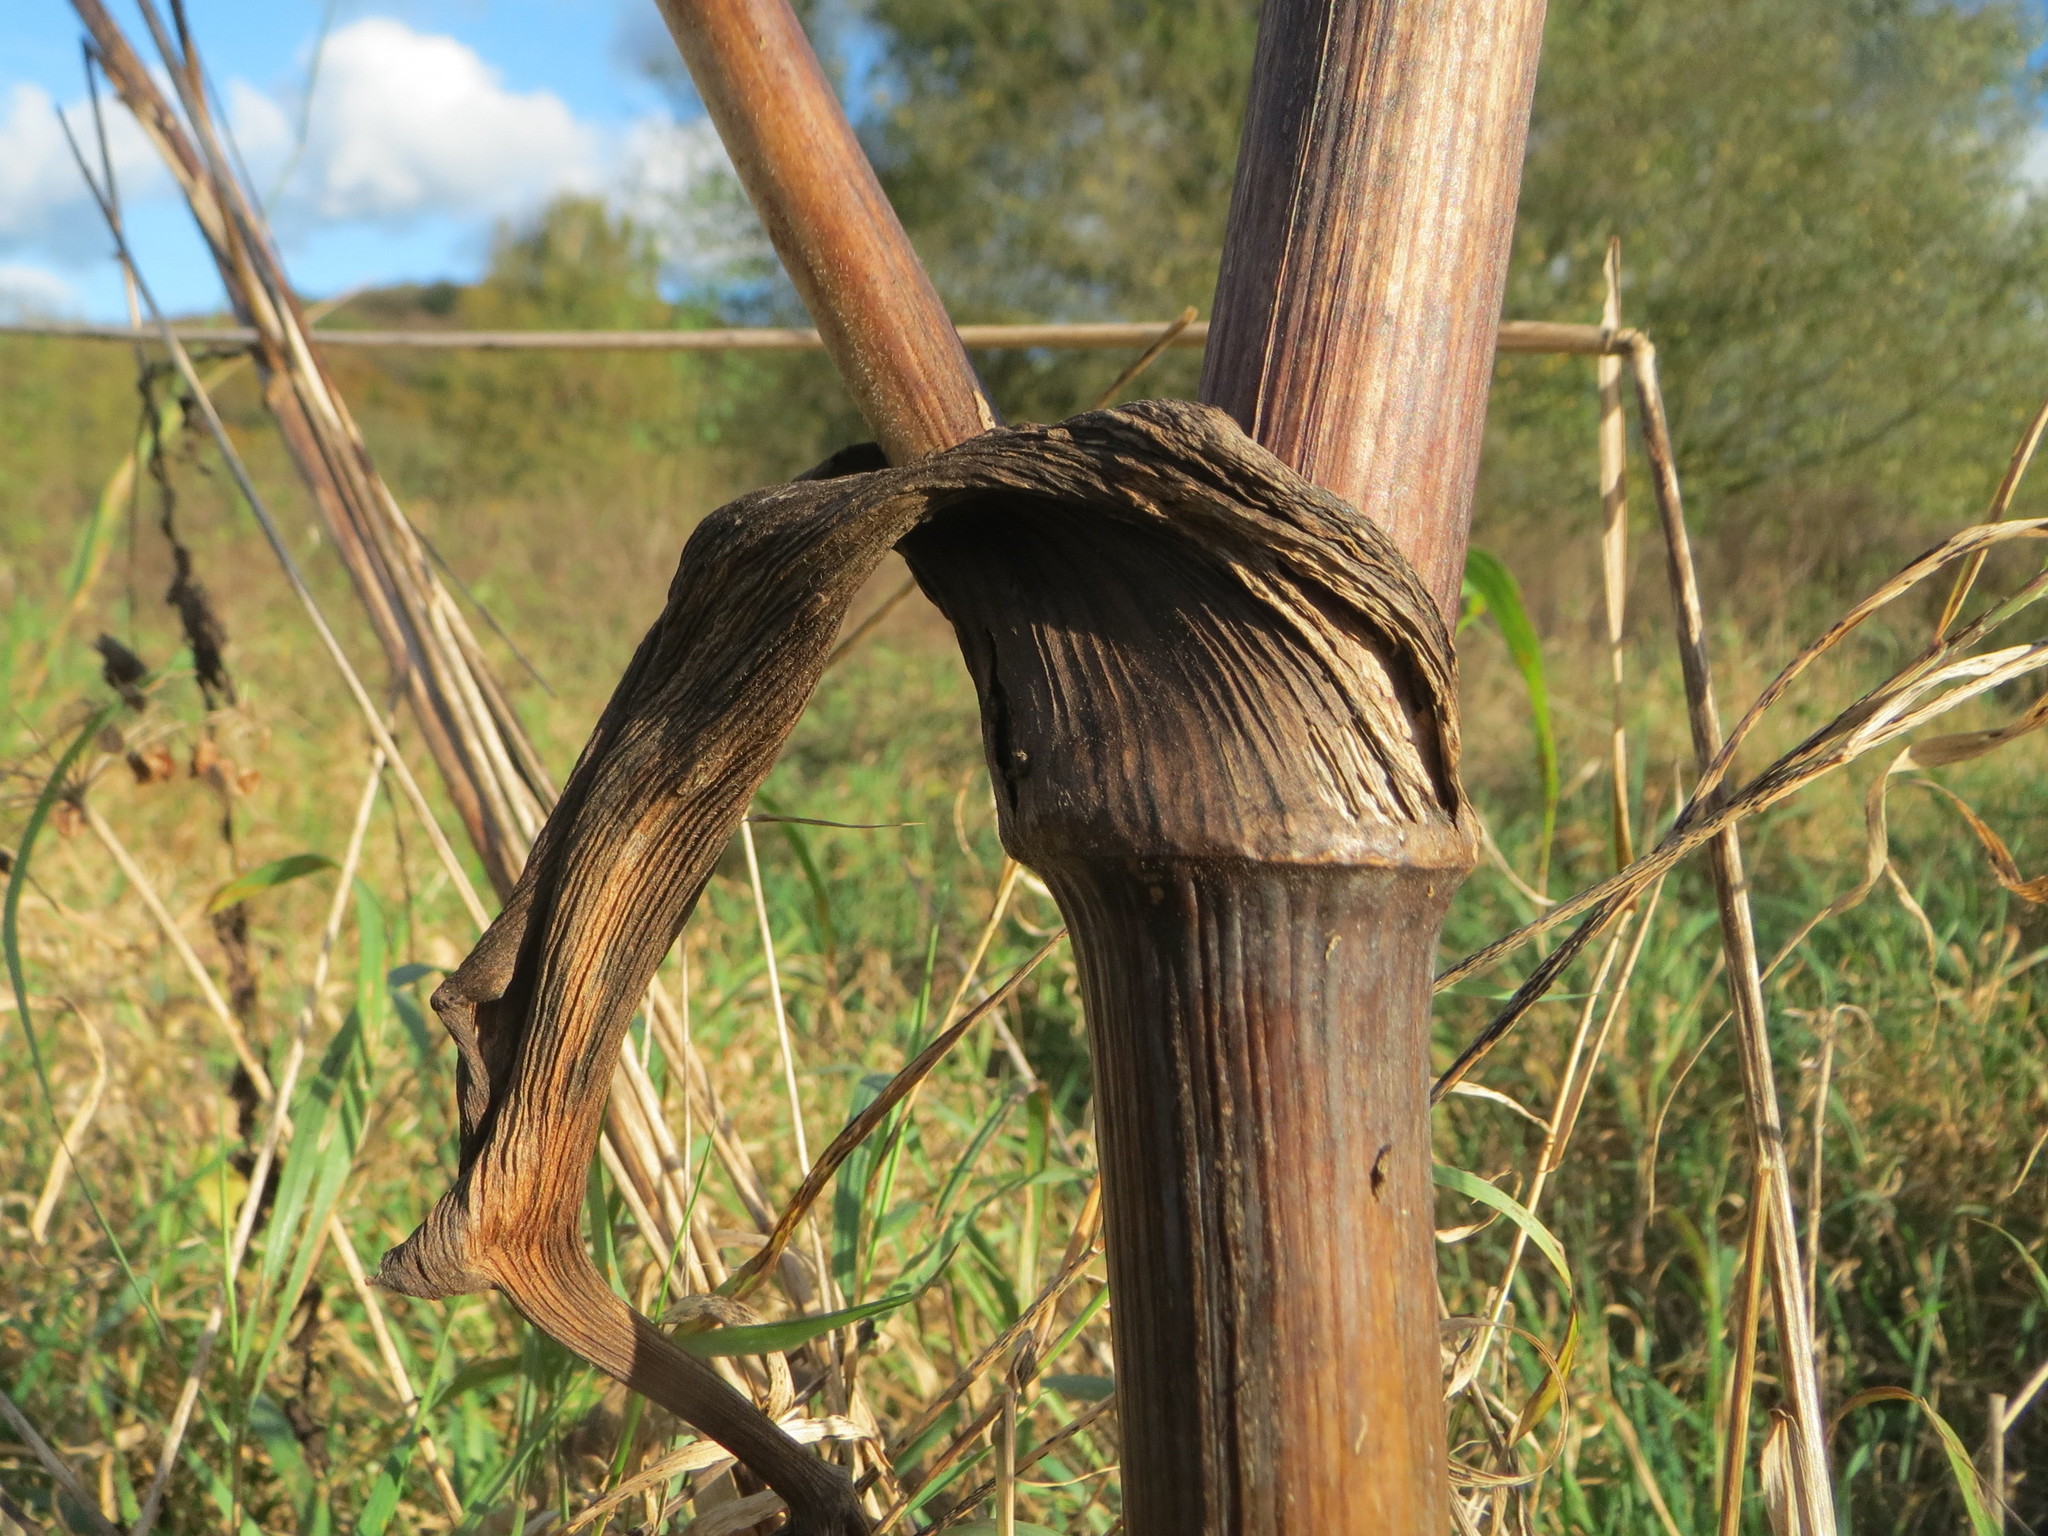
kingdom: Plantae
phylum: Tracheophyta
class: Magnoliopsida
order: Apiales
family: Apiaceae
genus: Angelica
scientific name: Angelica sylvestris
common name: Wild angelica
